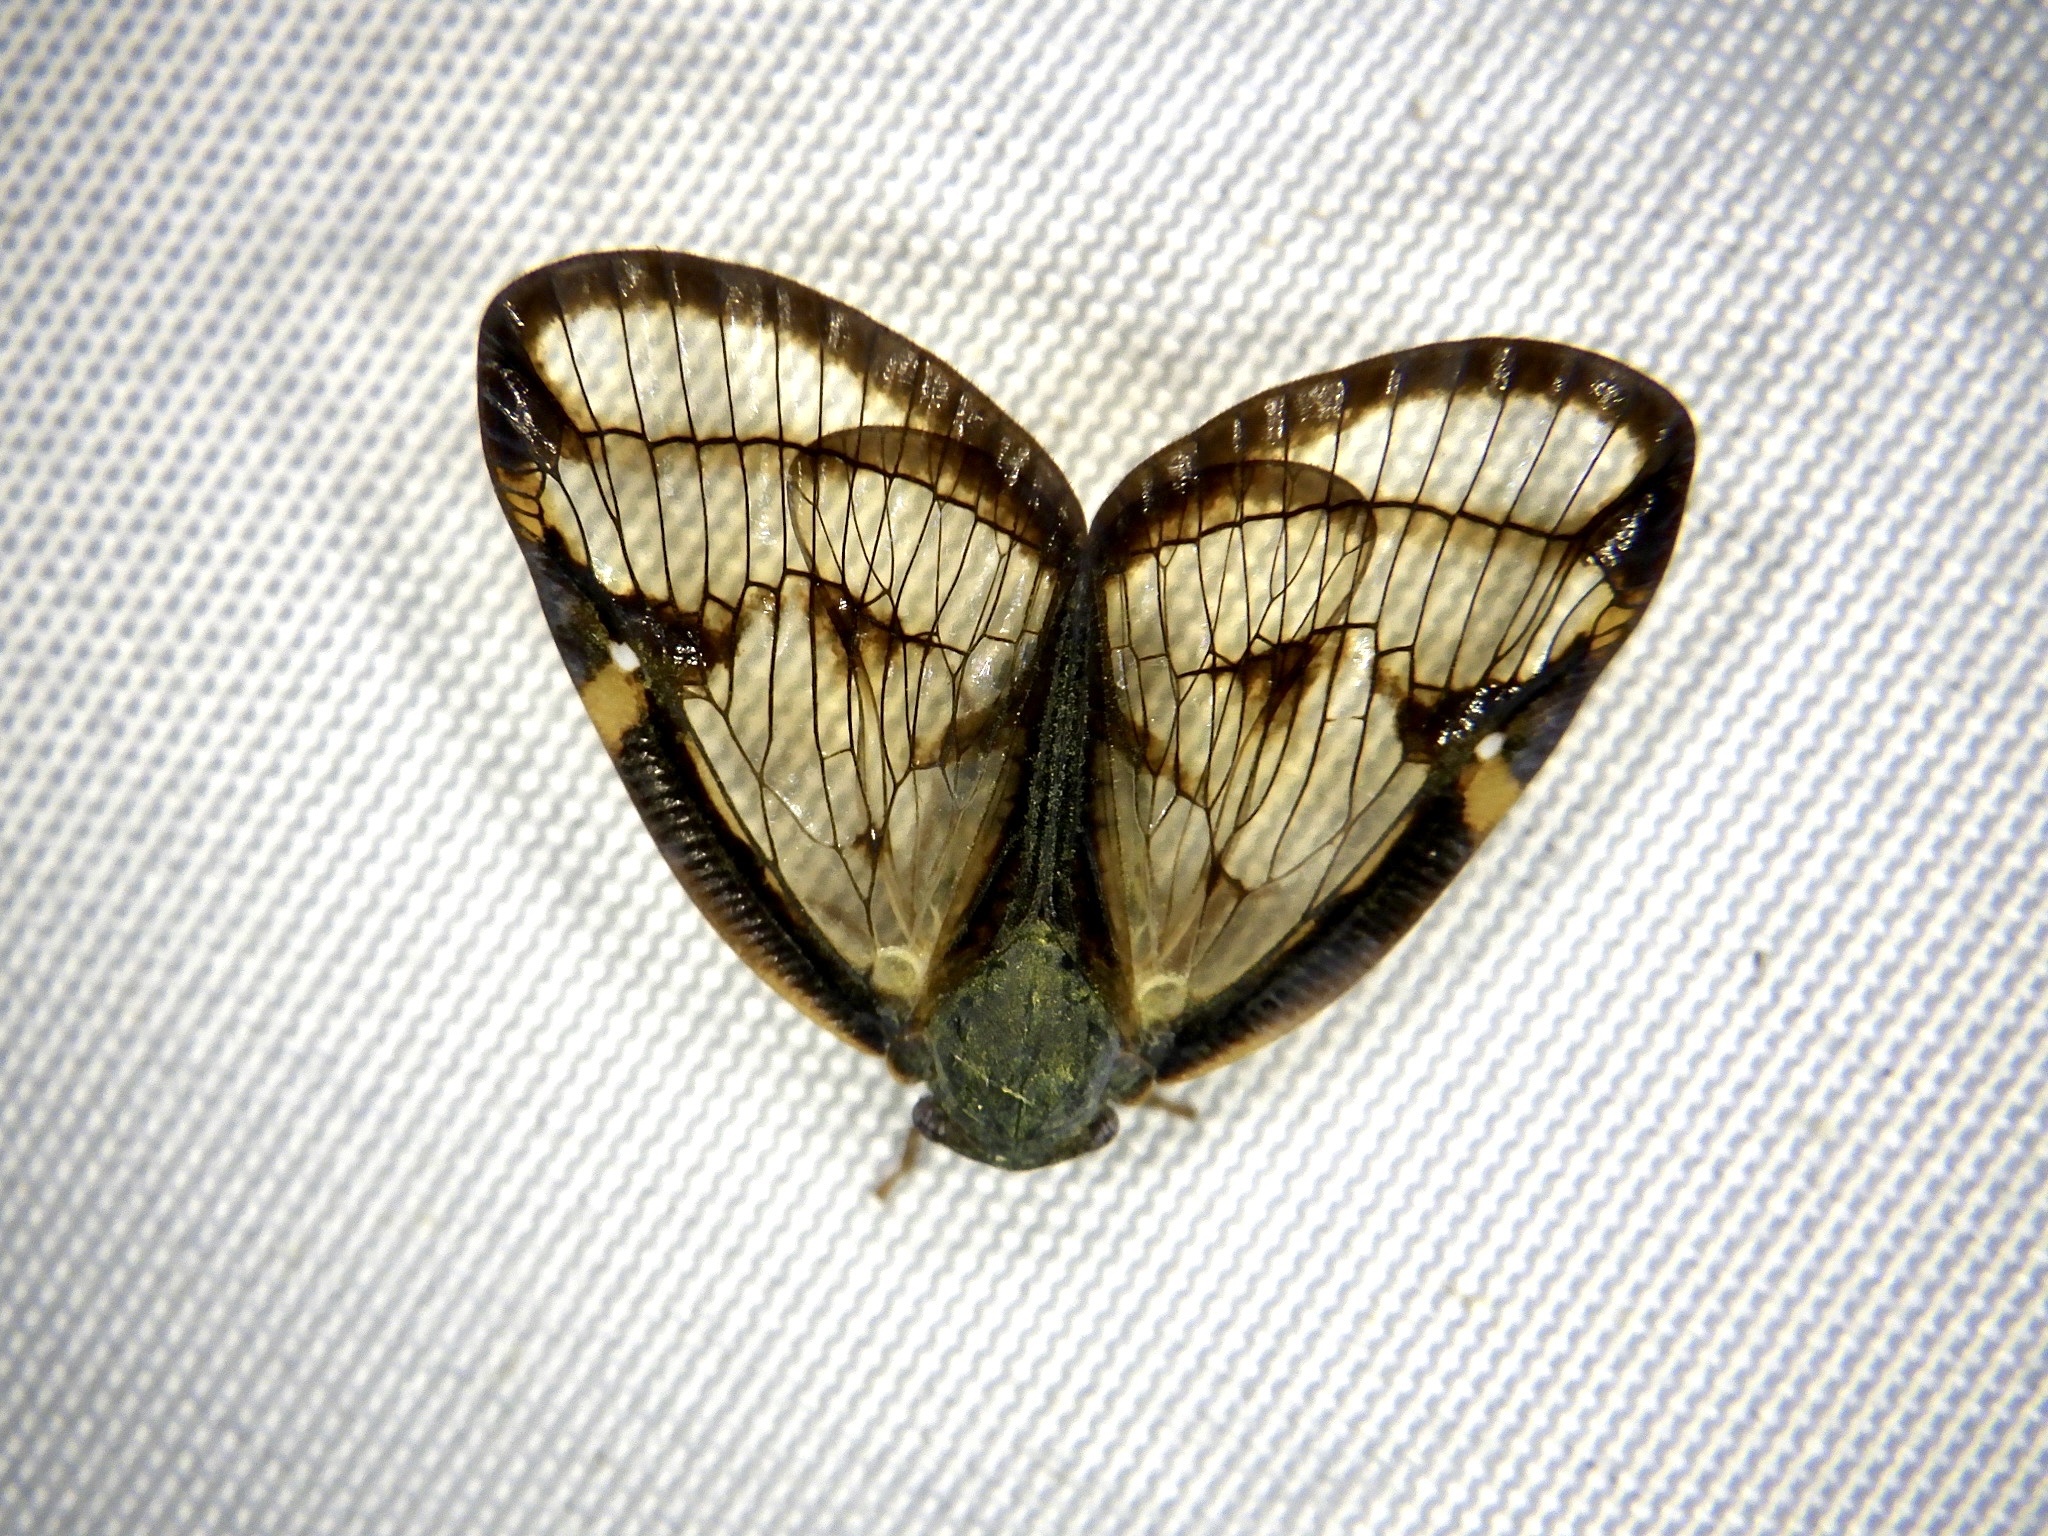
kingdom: Animalia
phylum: Arthropoda
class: Insecta
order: Hemiptera
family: Ricaniidae
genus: Euricania
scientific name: Euricania facialis
